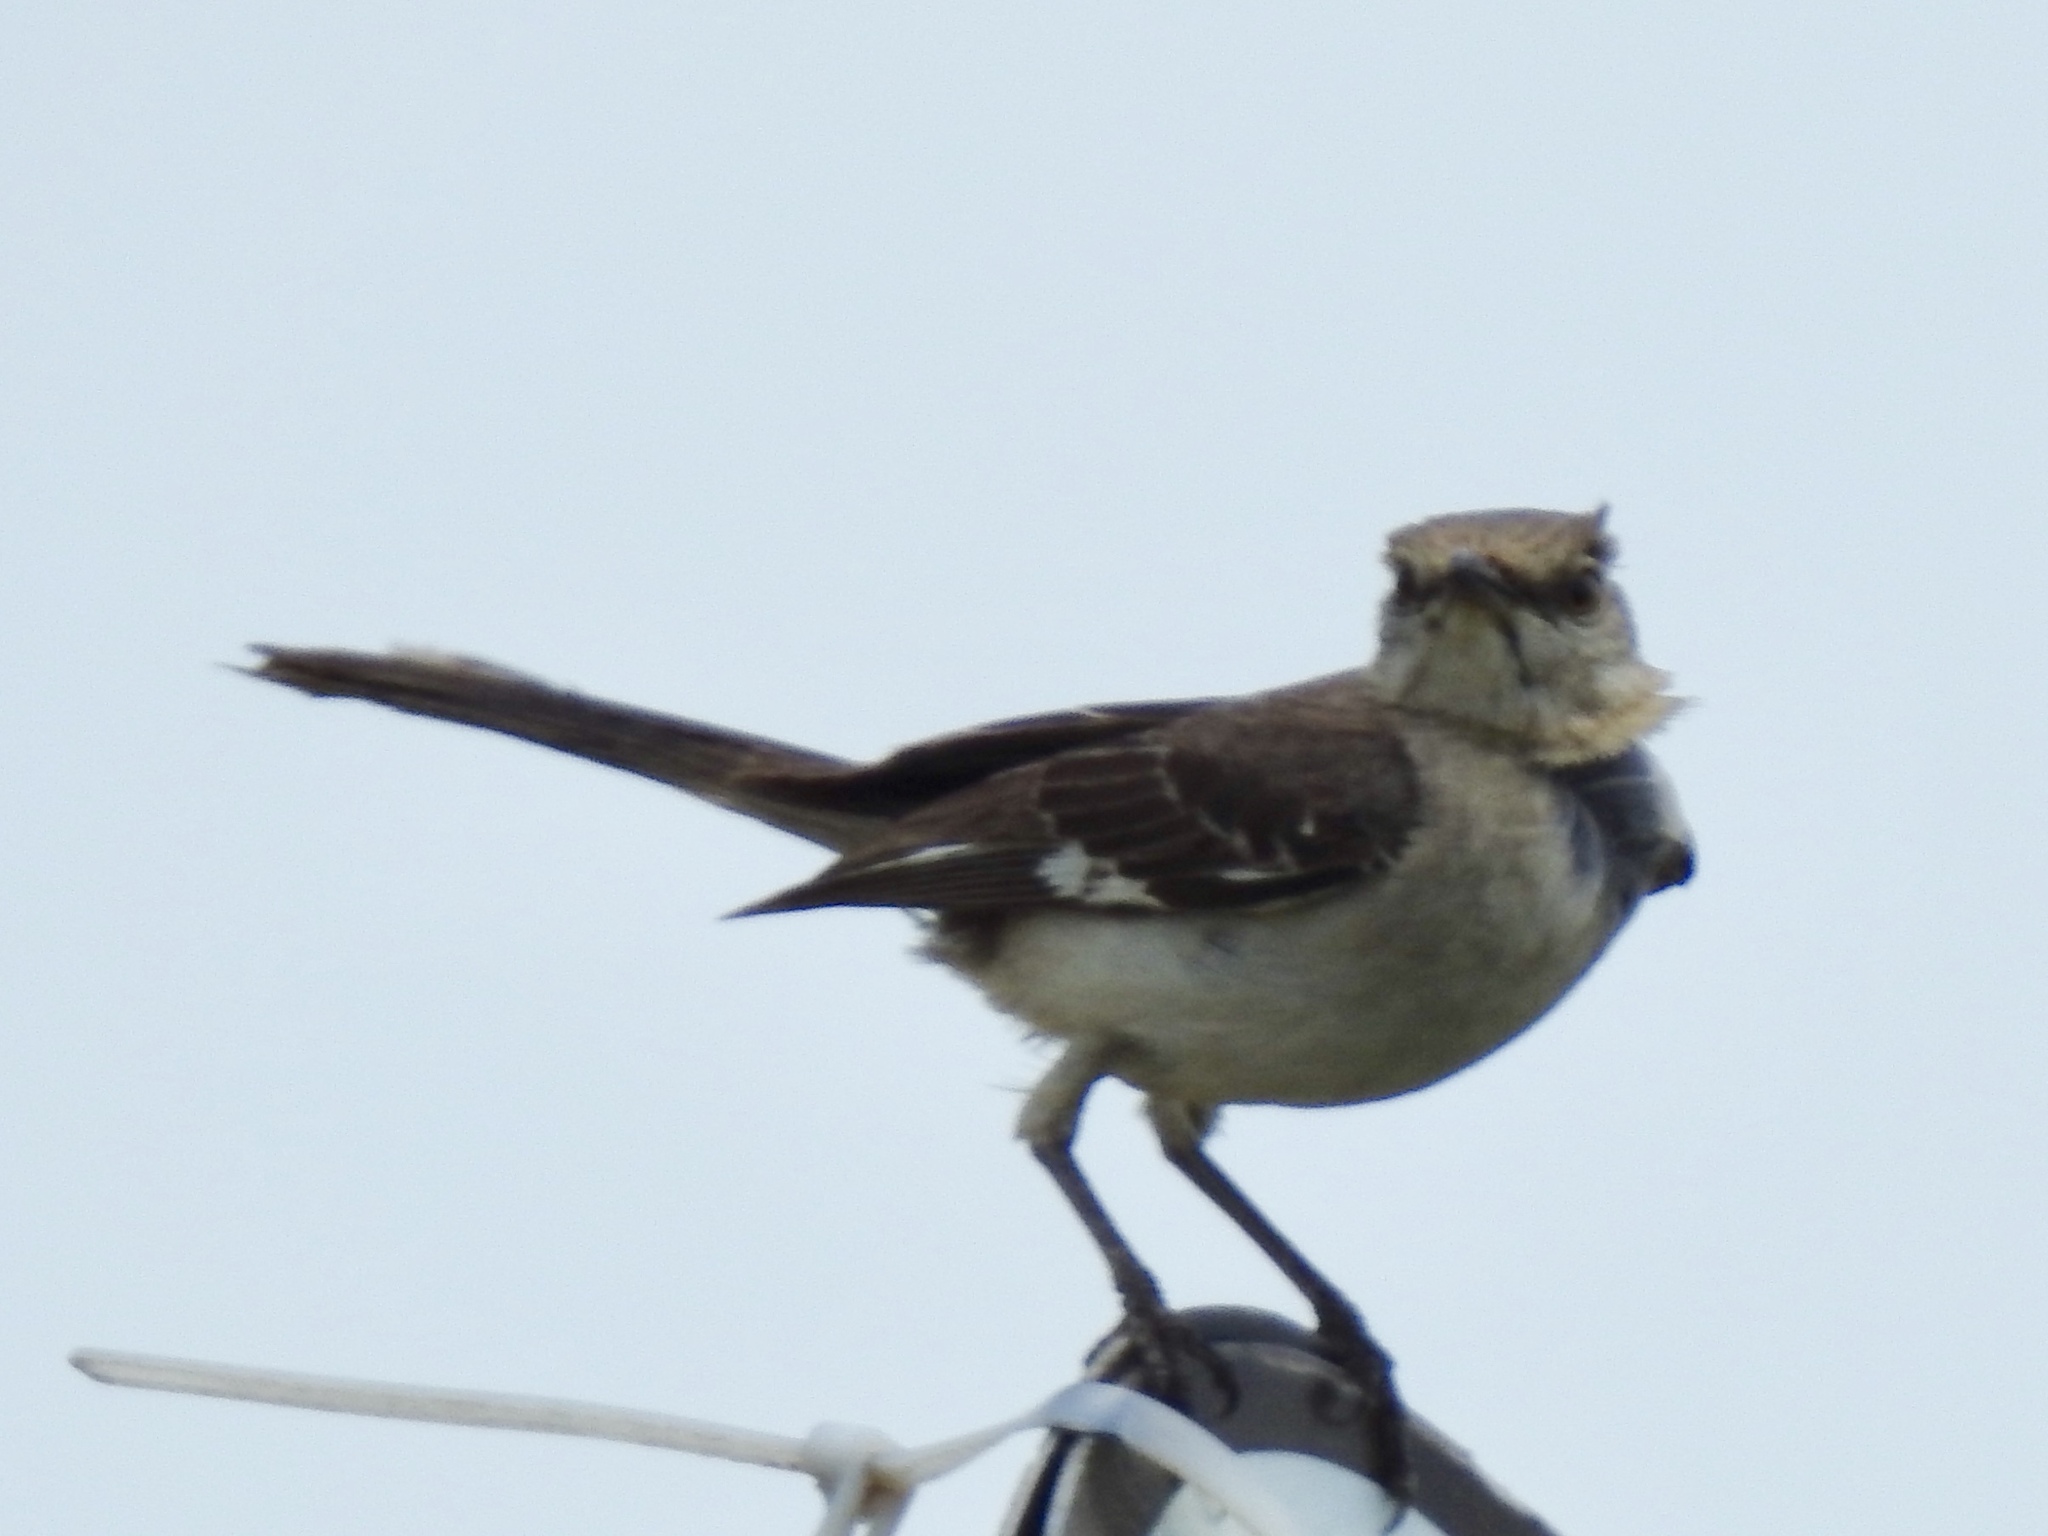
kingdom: Animalia
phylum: Chordata
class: Aves
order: Passeriformes
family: Mimidae
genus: Mimus
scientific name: Mimus polyglottos
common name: Northern mockingbird
